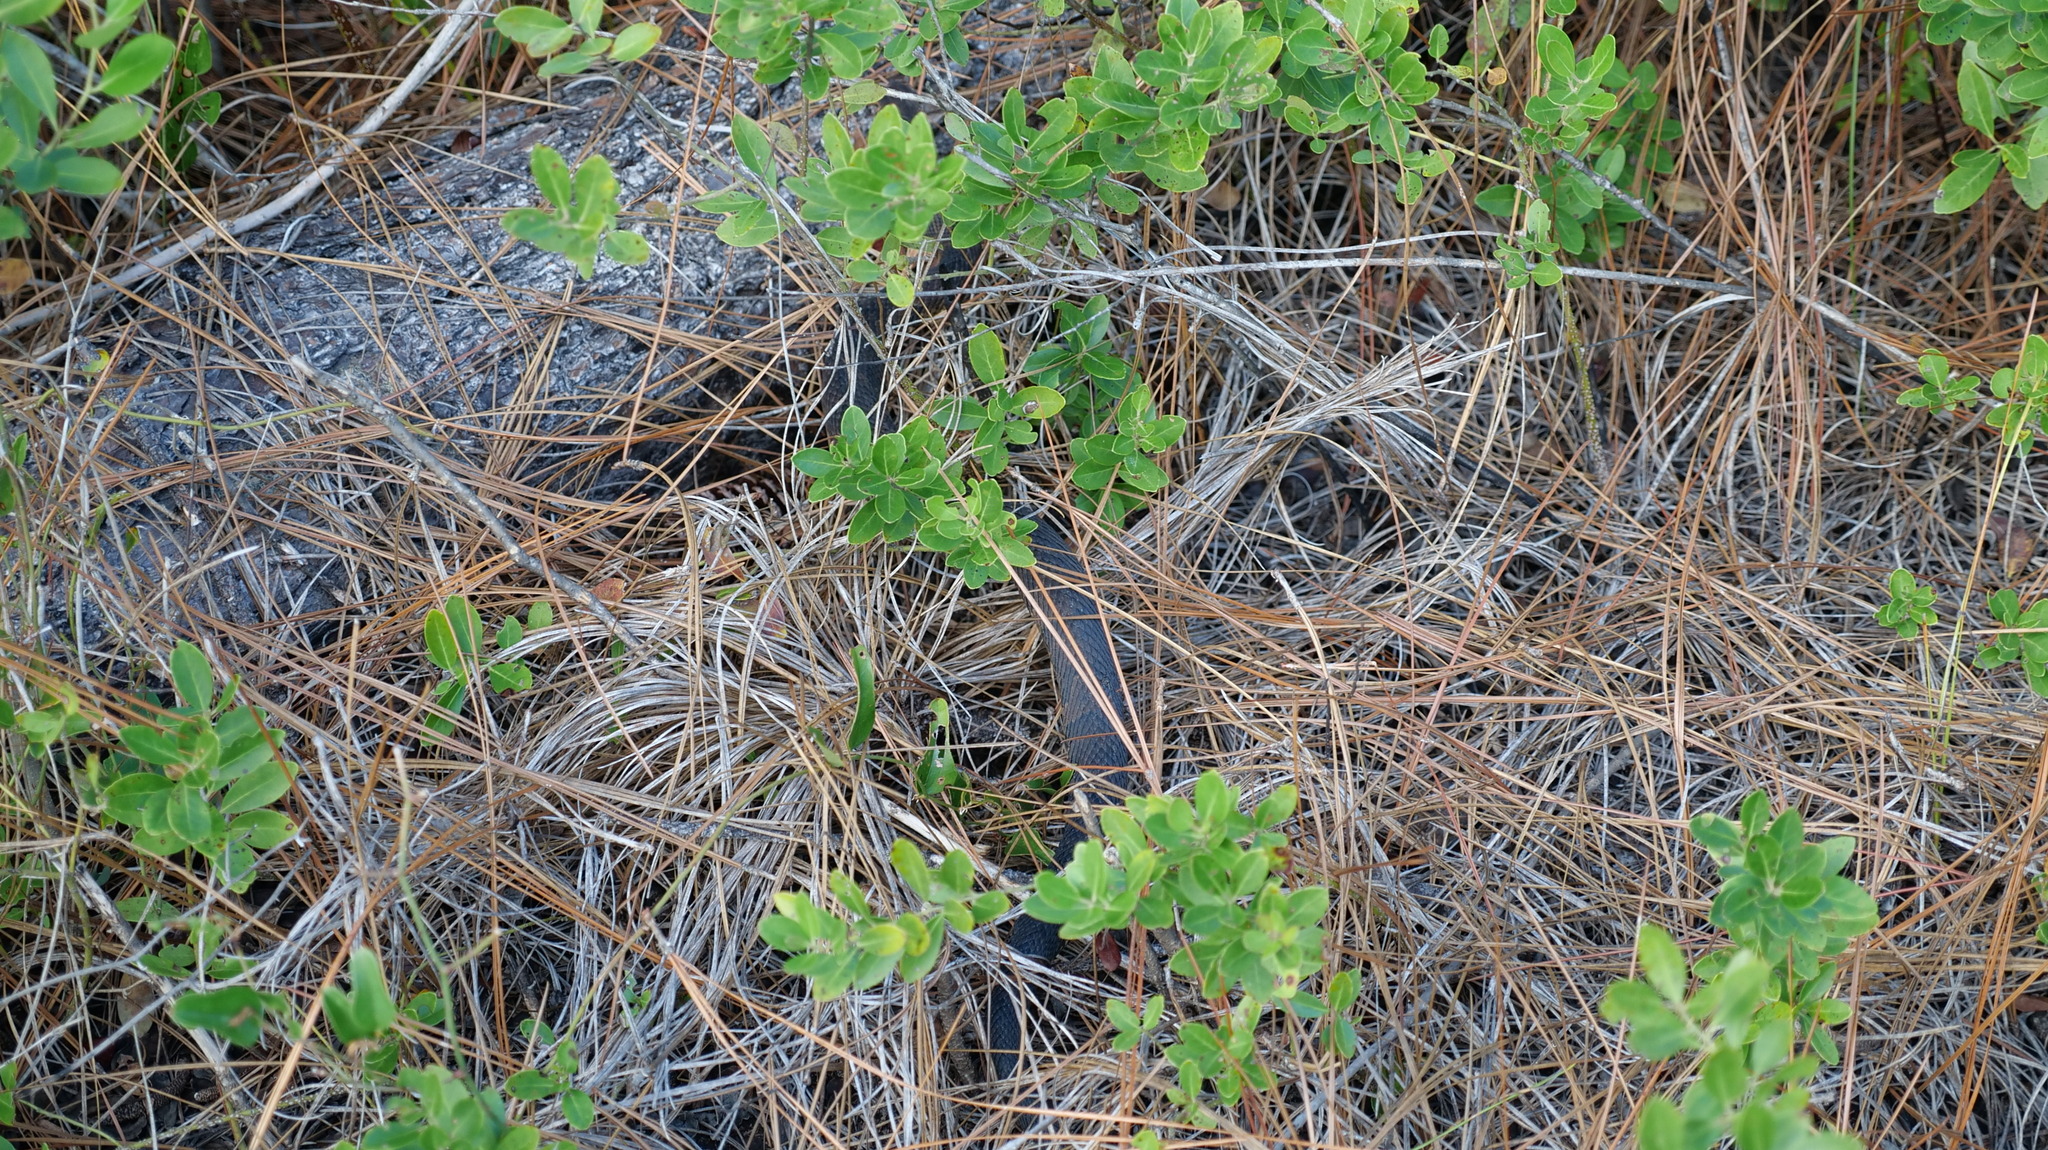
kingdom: Animalia
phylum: Chordata
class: Squamata
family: Viperidae
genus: Agkistrodon
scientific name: Agkistrodon conanti
